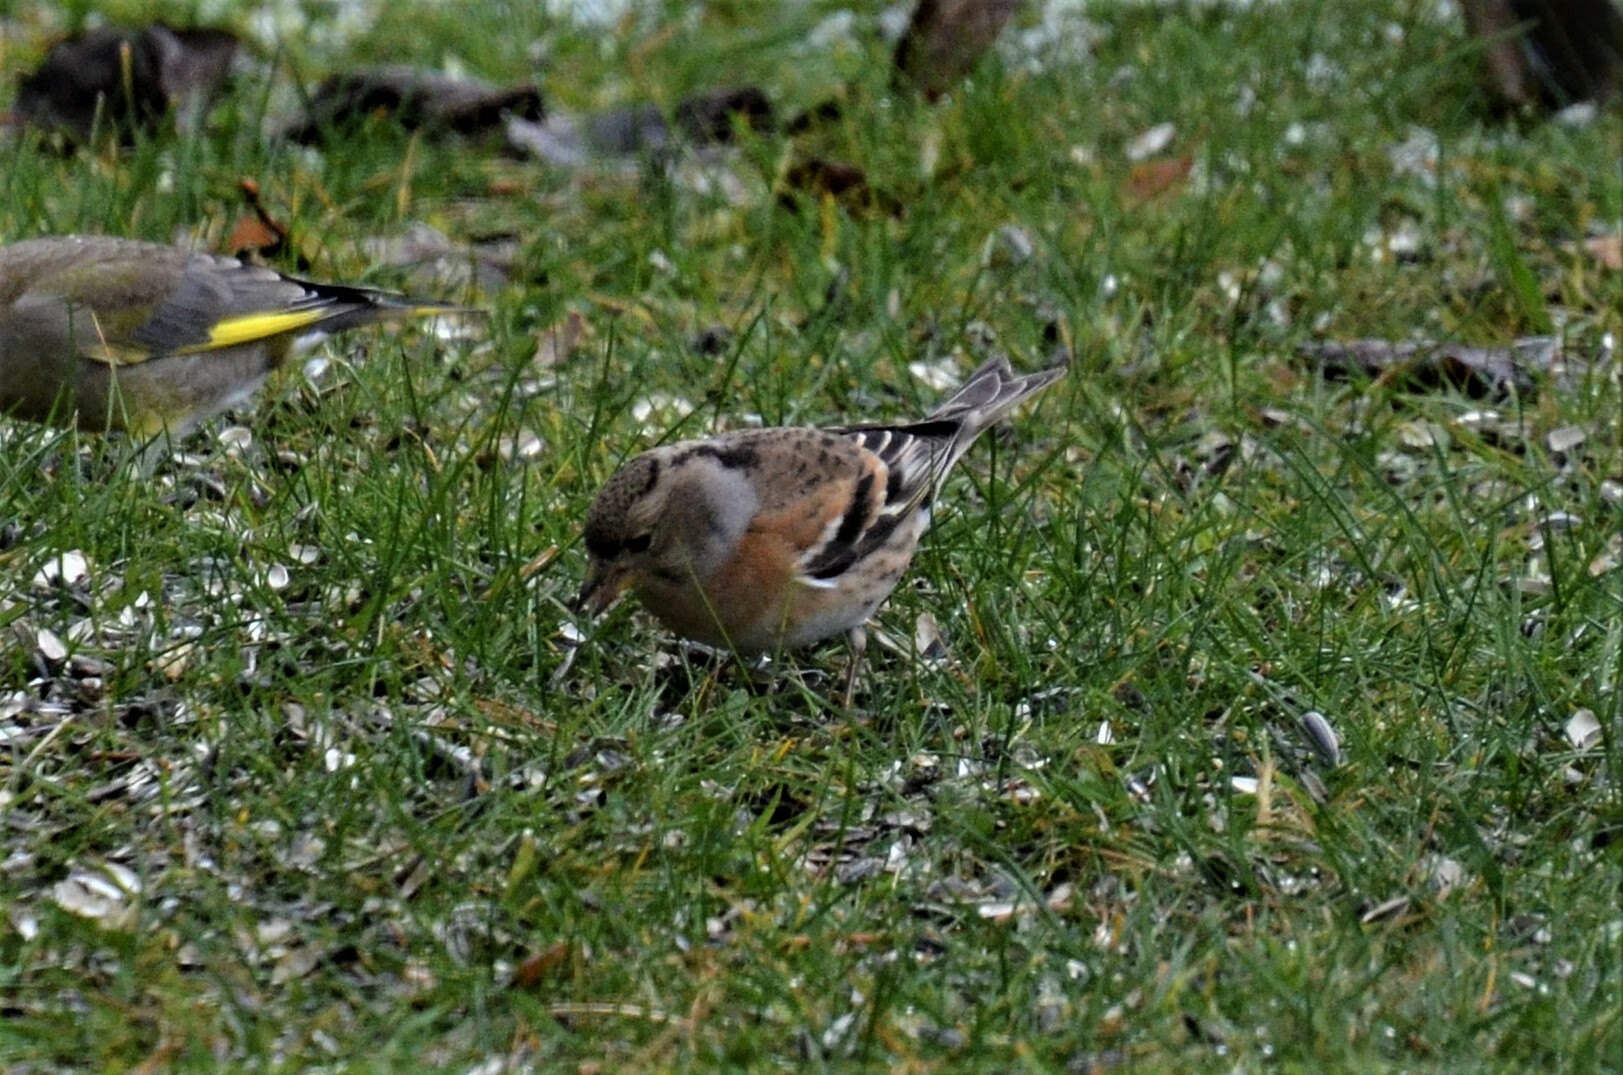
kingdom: Animalia
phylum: Chordata
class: Aves
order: Passeriformes
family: Fringillidae
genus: Fringilla
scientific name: Fringilla montifringilla
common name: Brambling
